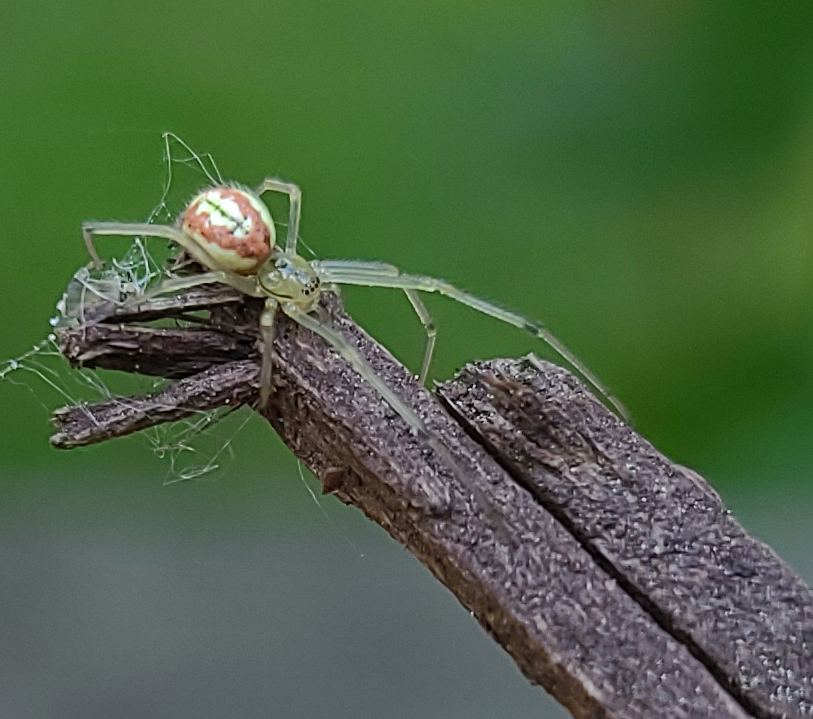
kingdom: Animalia
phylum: Arthropoda
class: Arachnida
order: Araneae
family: Theridiidae
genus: Enoplognatha
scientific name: Enoplognatha ovata
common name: Common candy-striped spider
